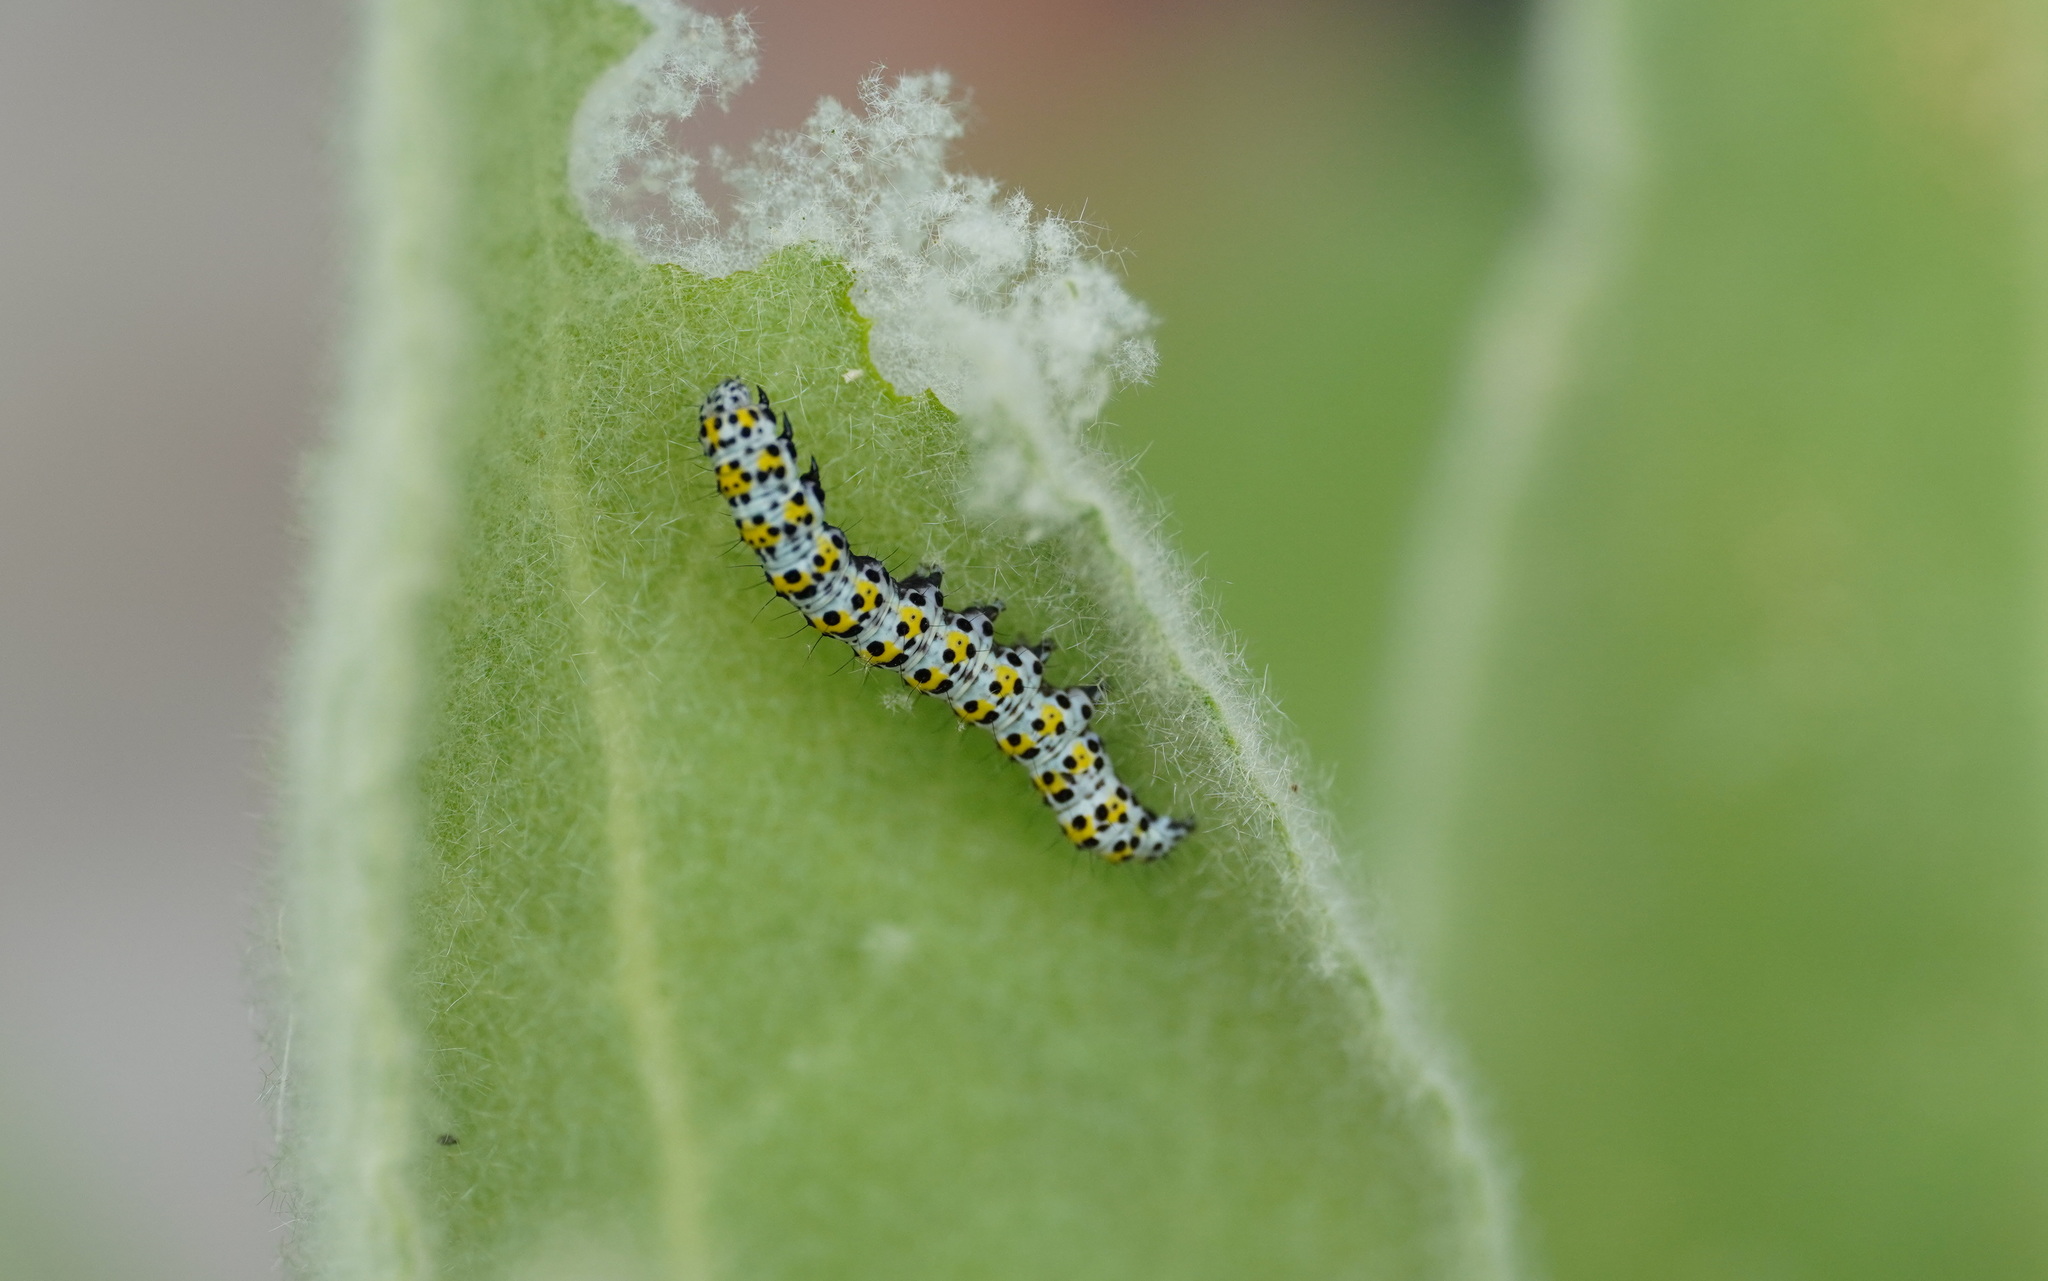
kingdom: Animalia
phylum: Arthropoda
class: Insecta
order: Lepidoptera
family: Noctuidae
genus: Cucullia
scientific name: Cucullia verbasci
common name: Mullein
